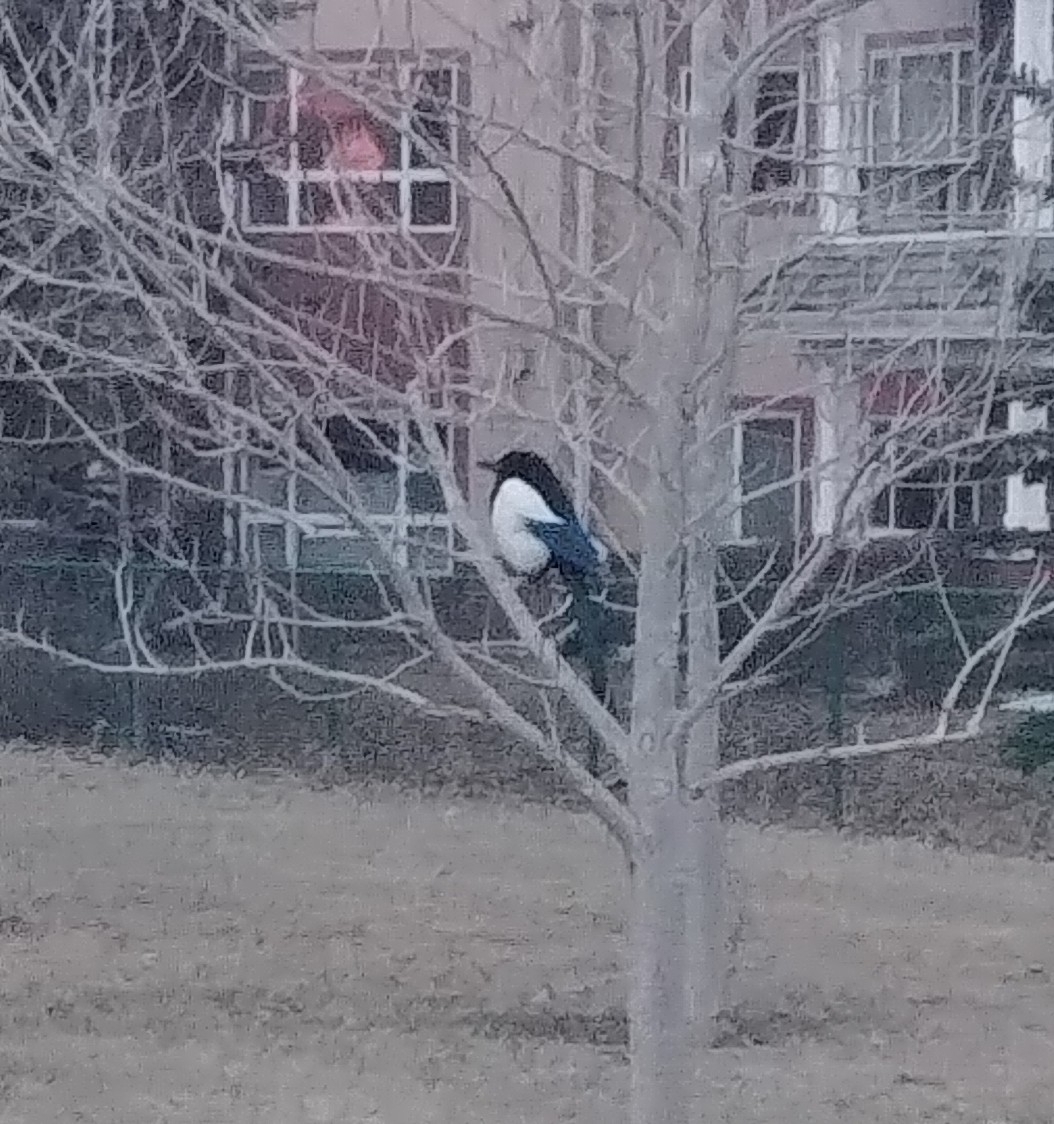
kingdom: Animalia
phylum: Chordata
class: Aves
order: Passeriformes
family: Corvidae
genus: Pica
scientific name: Pica hudsonia
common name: Black-billed magpie
